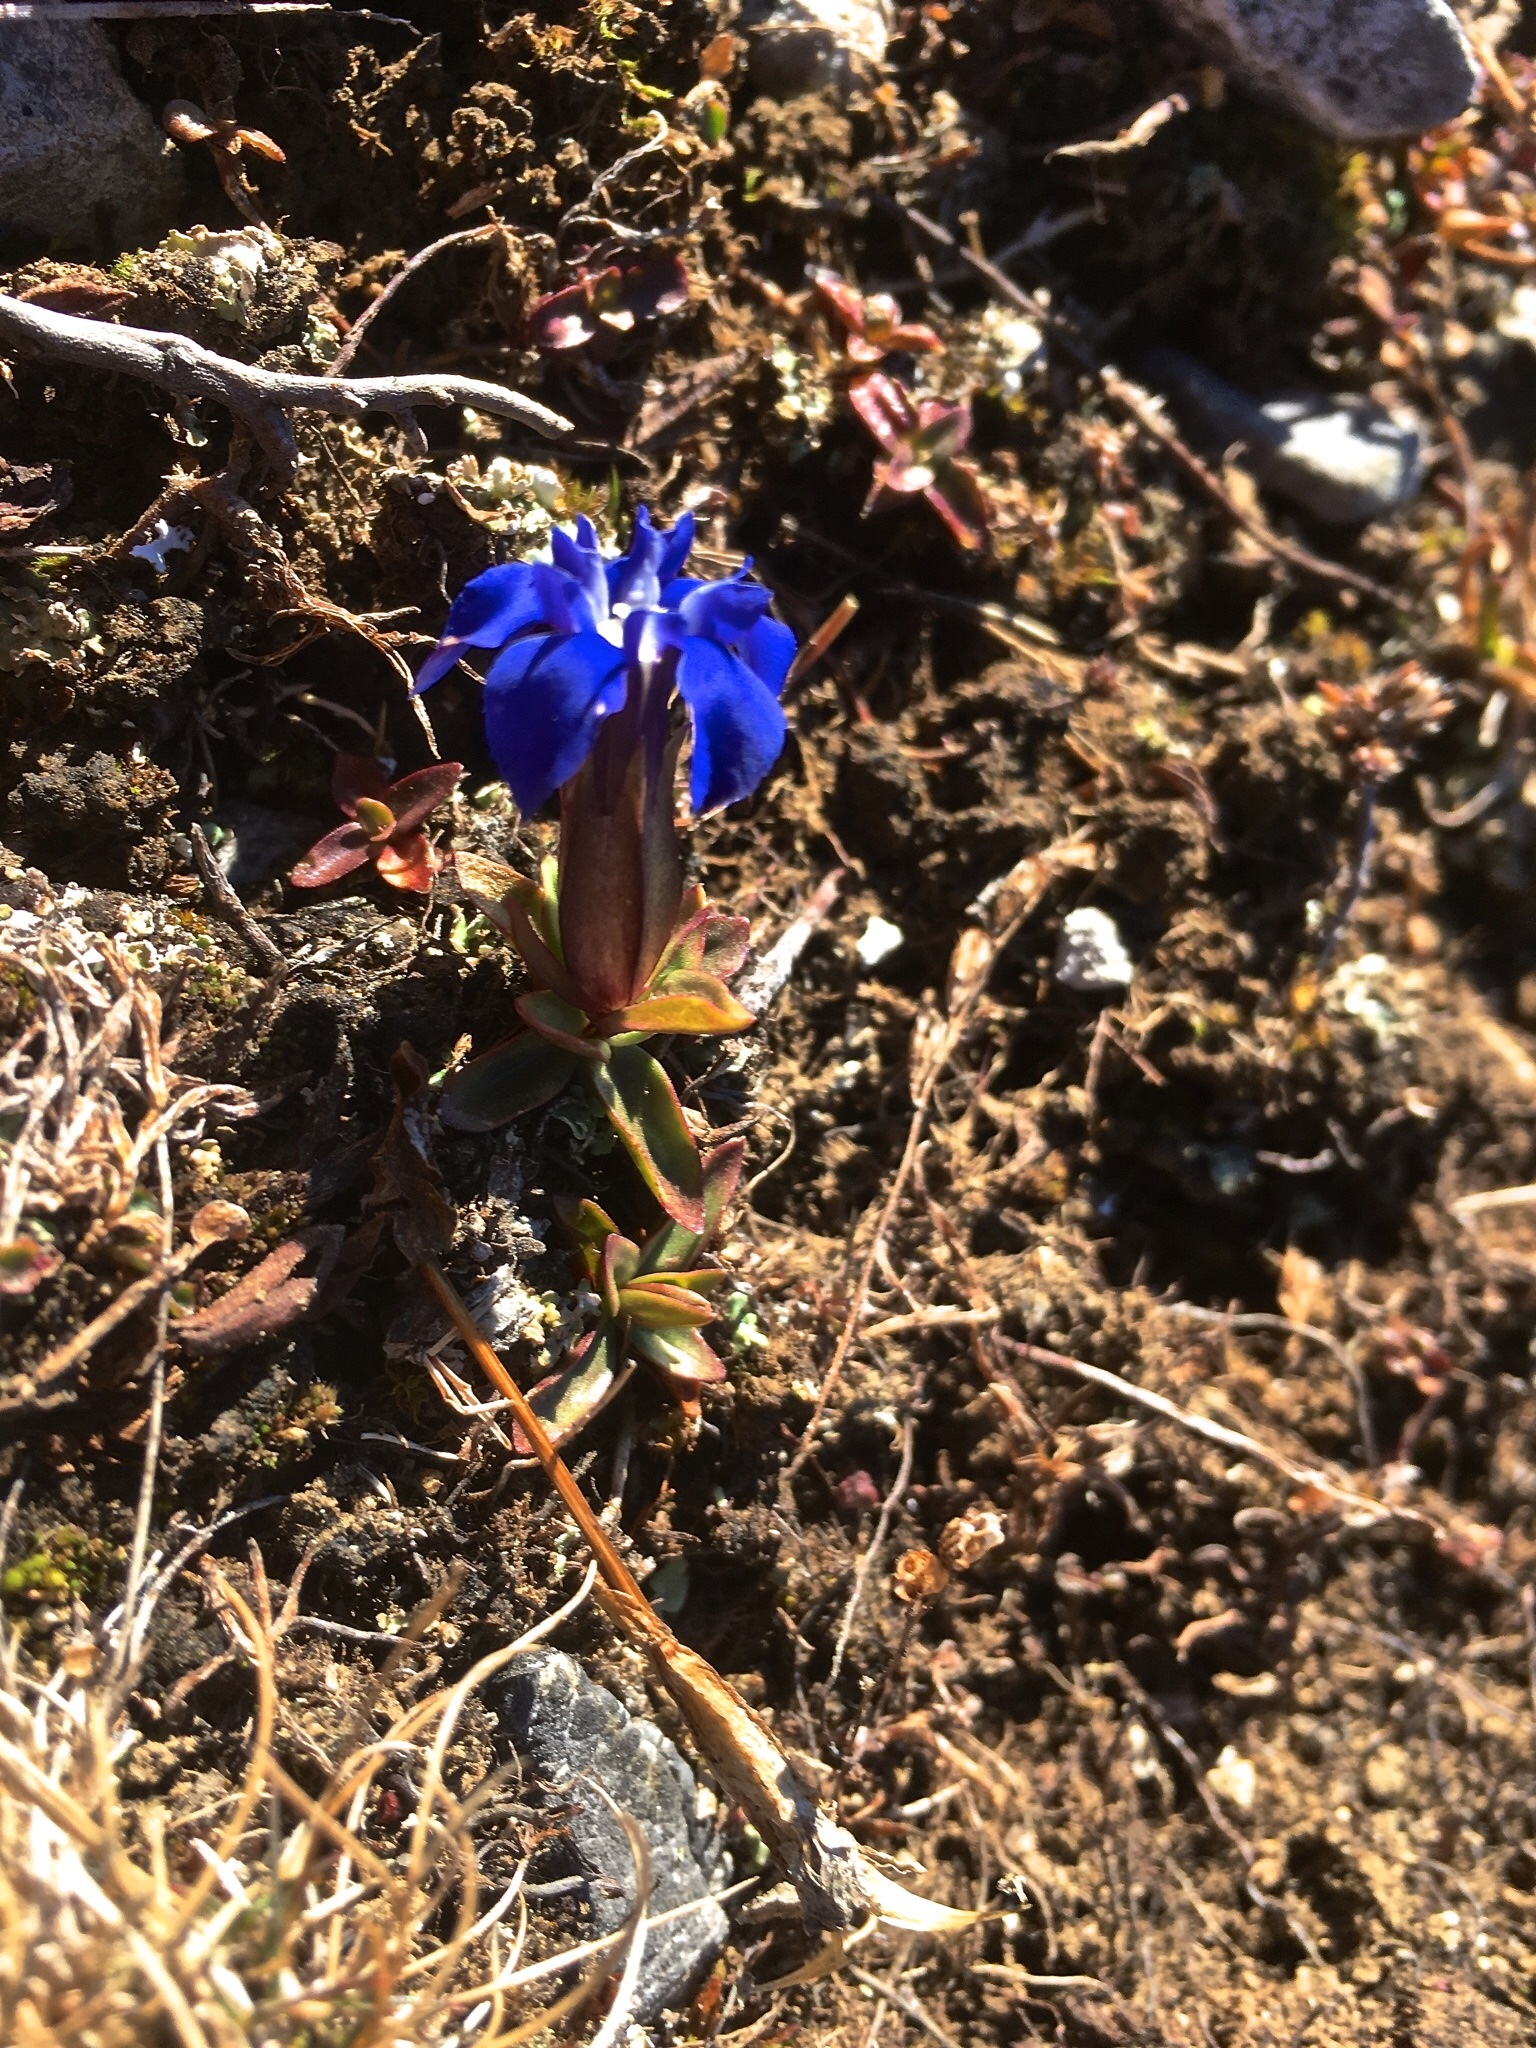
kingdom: Plantae
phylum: Tracheophyta
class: Magnoliopsida
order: Gentianales
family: Gentianaceae
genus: Gentiana
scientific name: Gentiana verna
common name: Spring gentian
